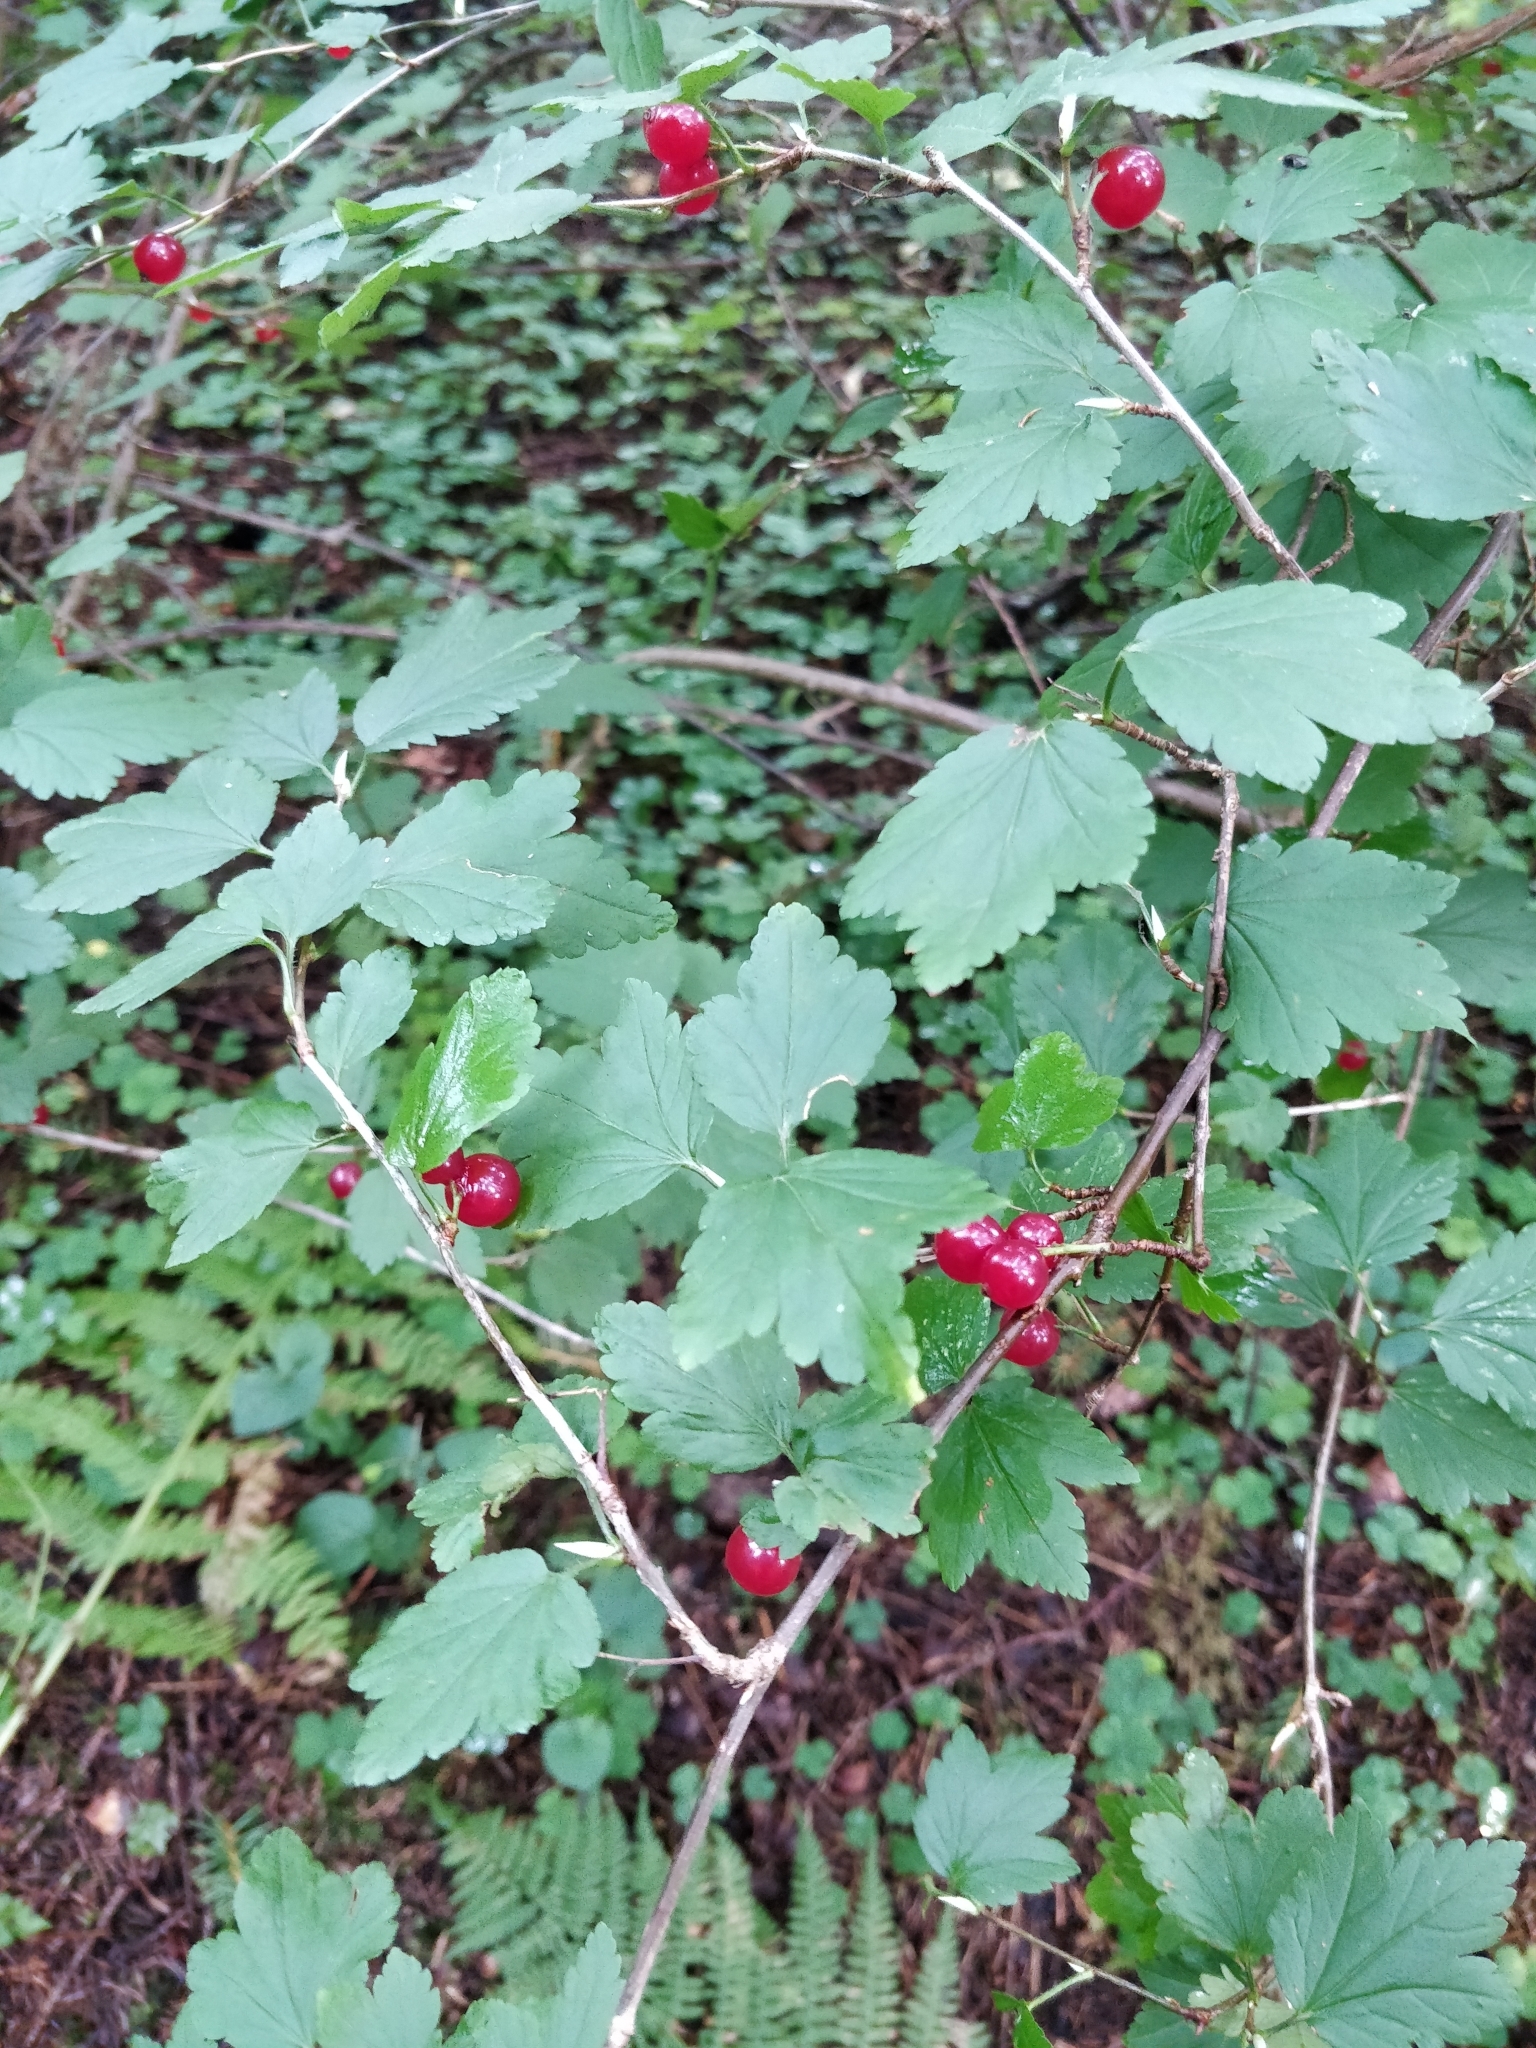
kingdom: Plantae
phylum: Tracheophyta
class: Magnoliopsida
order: Saxifragales
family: Grossulariaceae
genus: Ribes
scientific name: Ribes alpinum
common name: Alpine currant
